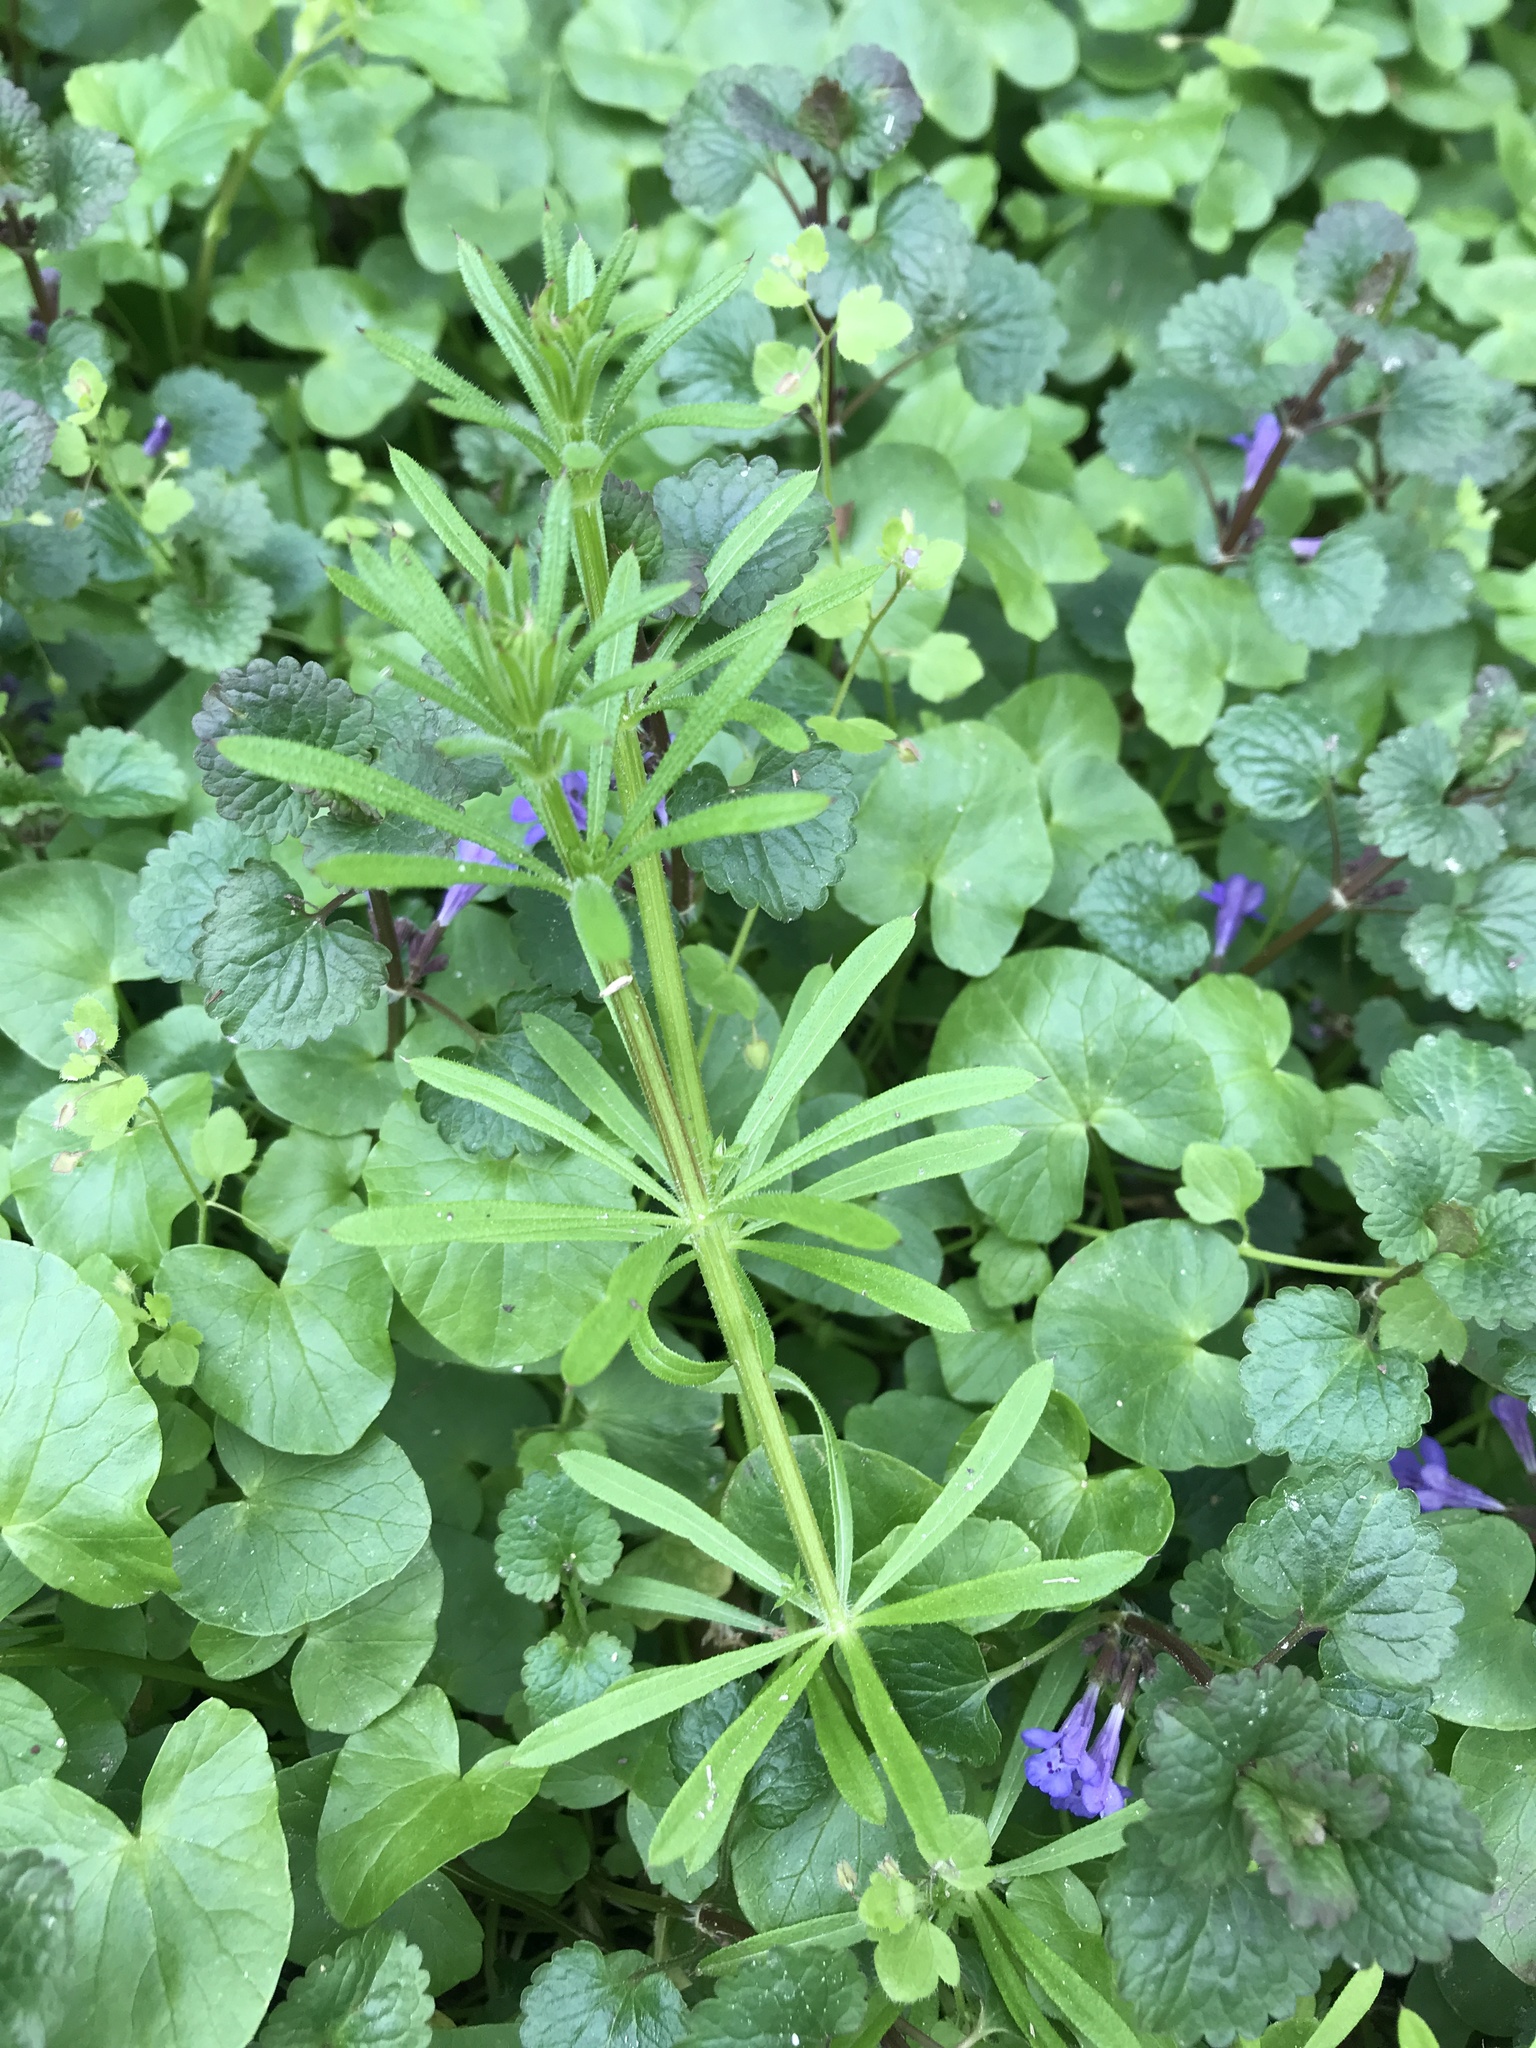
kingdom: Plantae
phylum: Tracheophyta
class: Magnoliopsida
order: Gentianales
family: Rubiaceae
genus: Galium
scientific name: Galium aparine
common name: Cleavers
